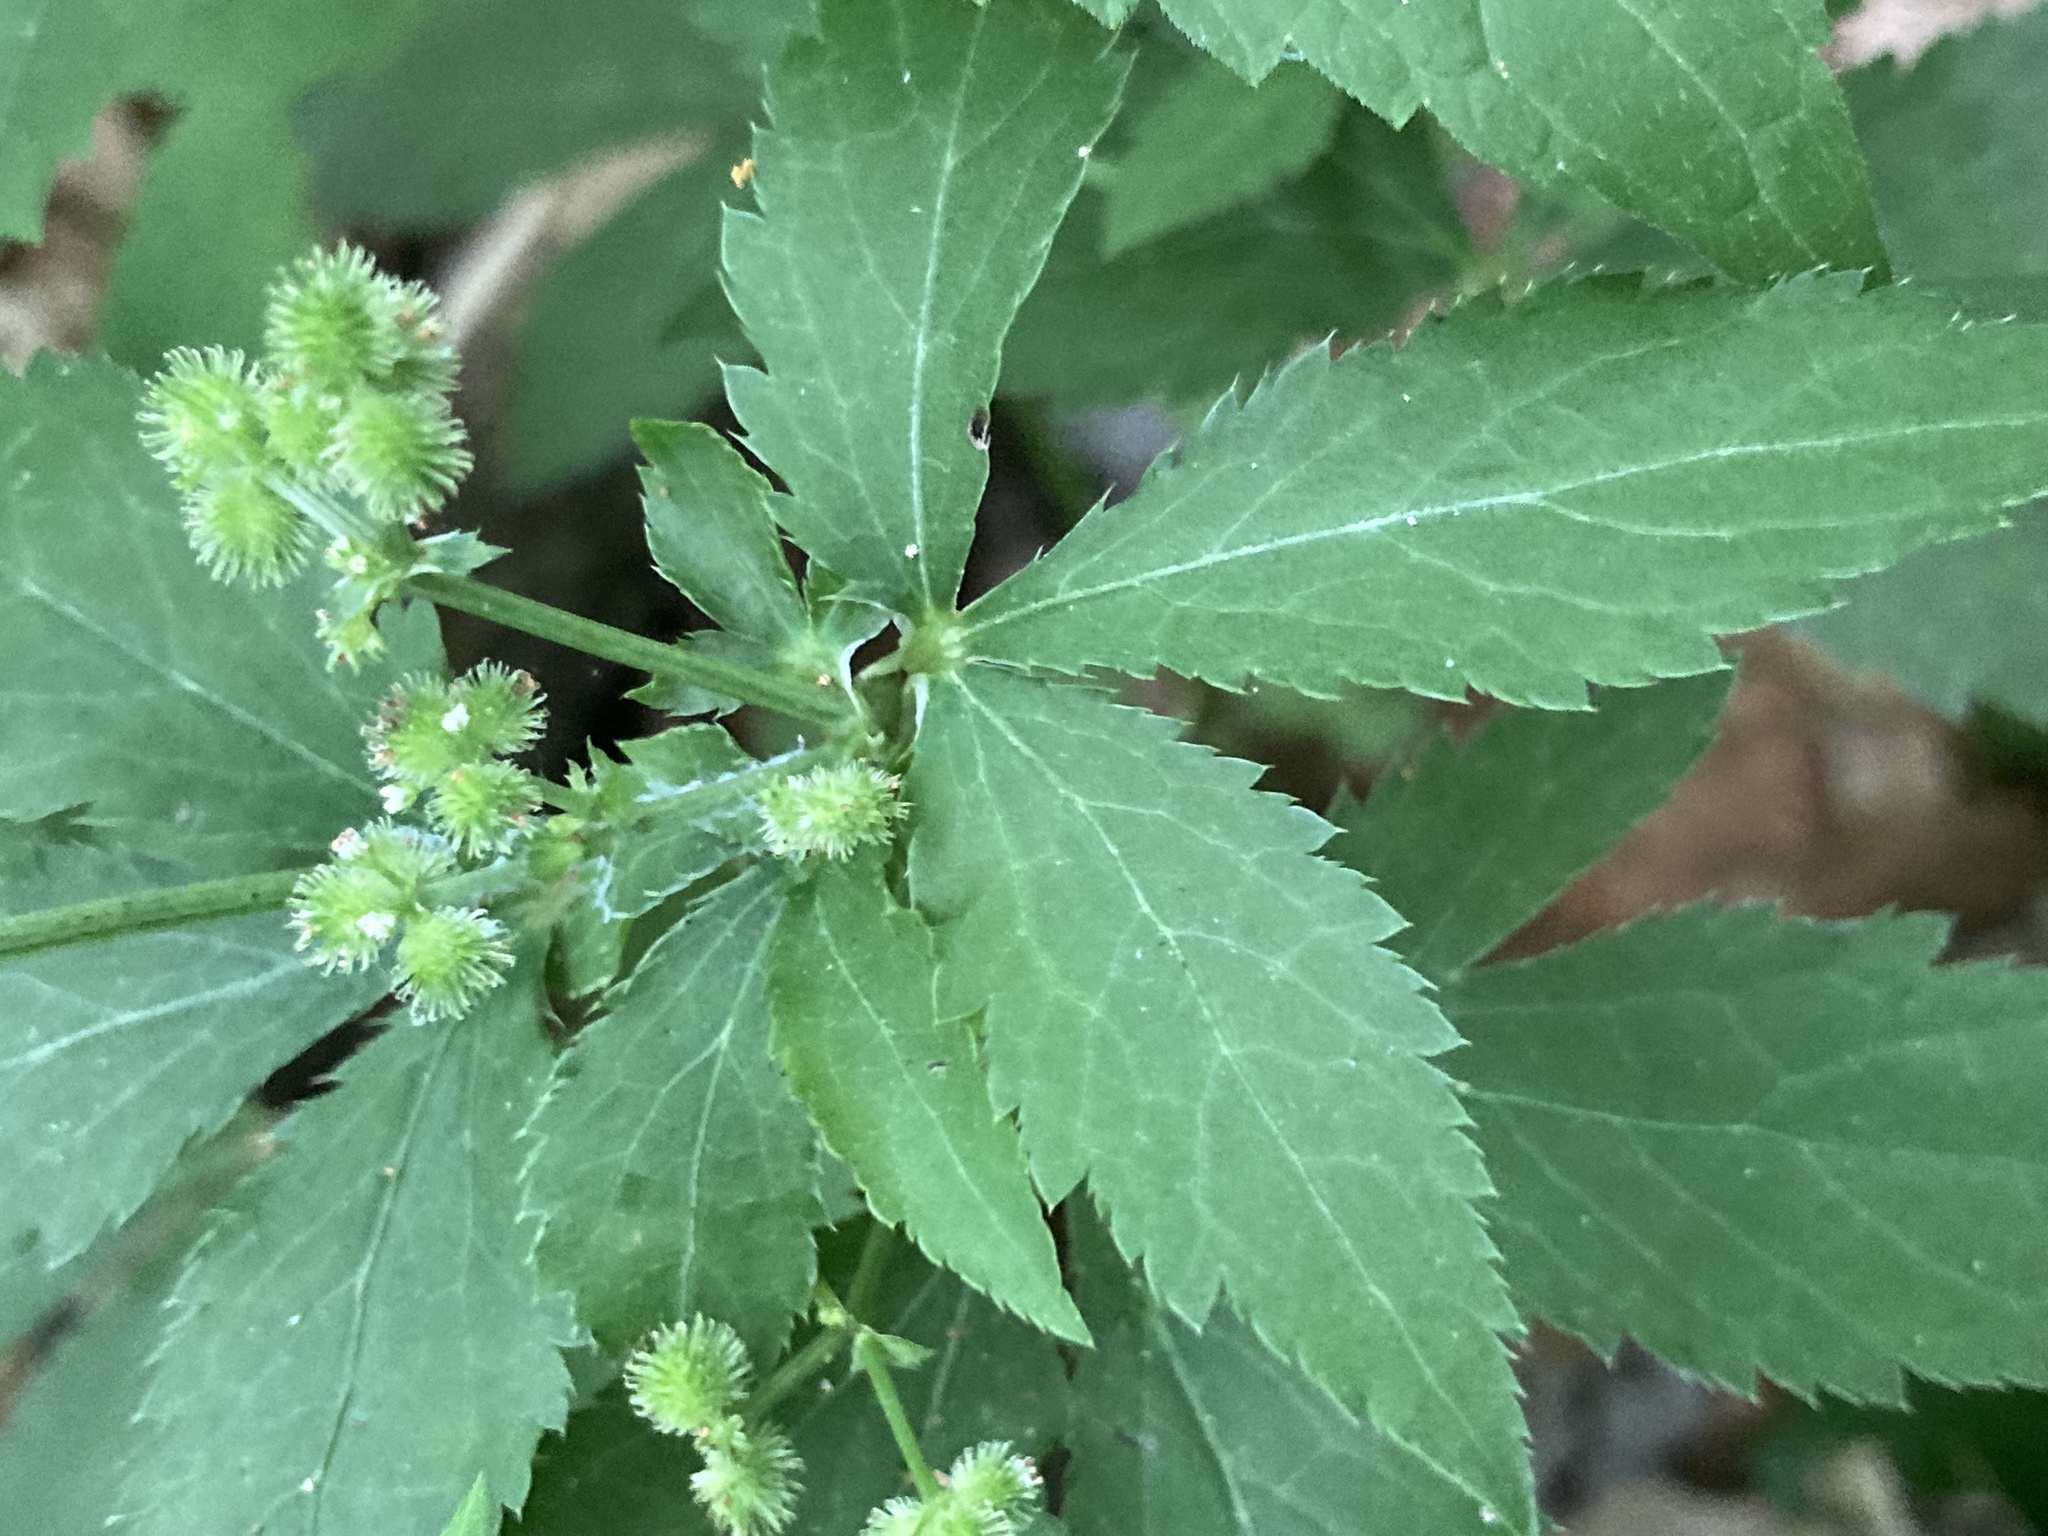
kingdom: Plantae
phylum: Tracheophyta
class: Magnoliopsida
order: Apiales
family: Apiaceae
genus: Sanicula
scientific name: Sanicula canadensis
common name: Canada sanicle
